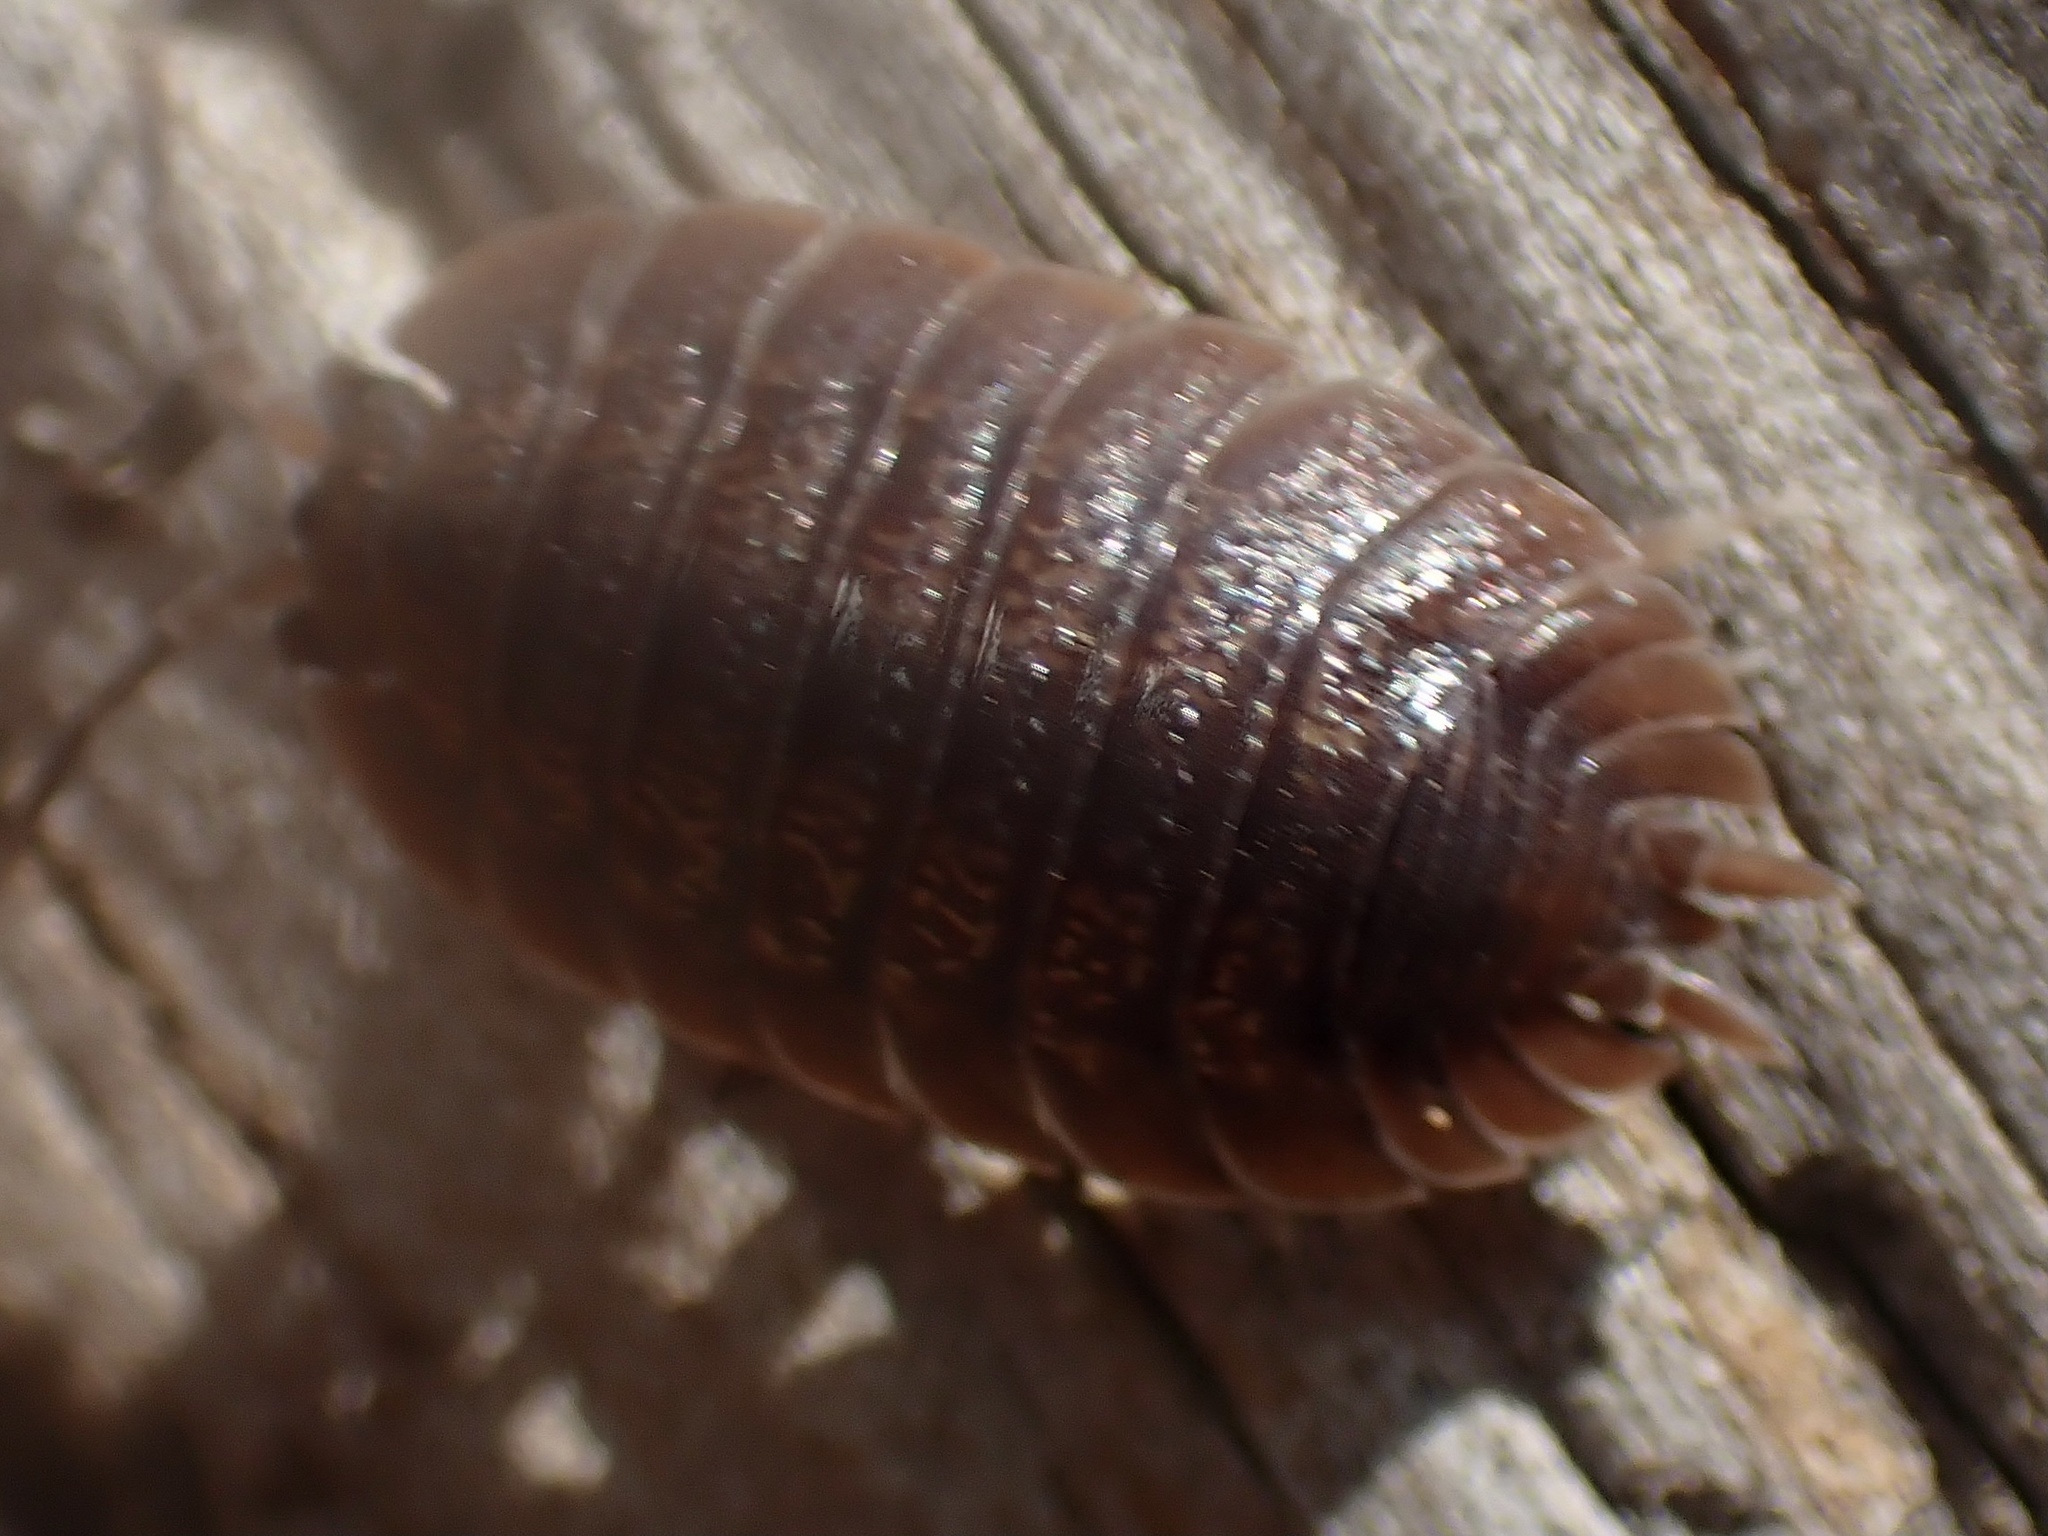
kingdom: Animalia
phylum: Arthropoda
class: Malacostraca
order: Isopoda
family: Porcellionidae
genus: Porcellio
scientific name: Porcellio dilatatus
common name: Isopod
